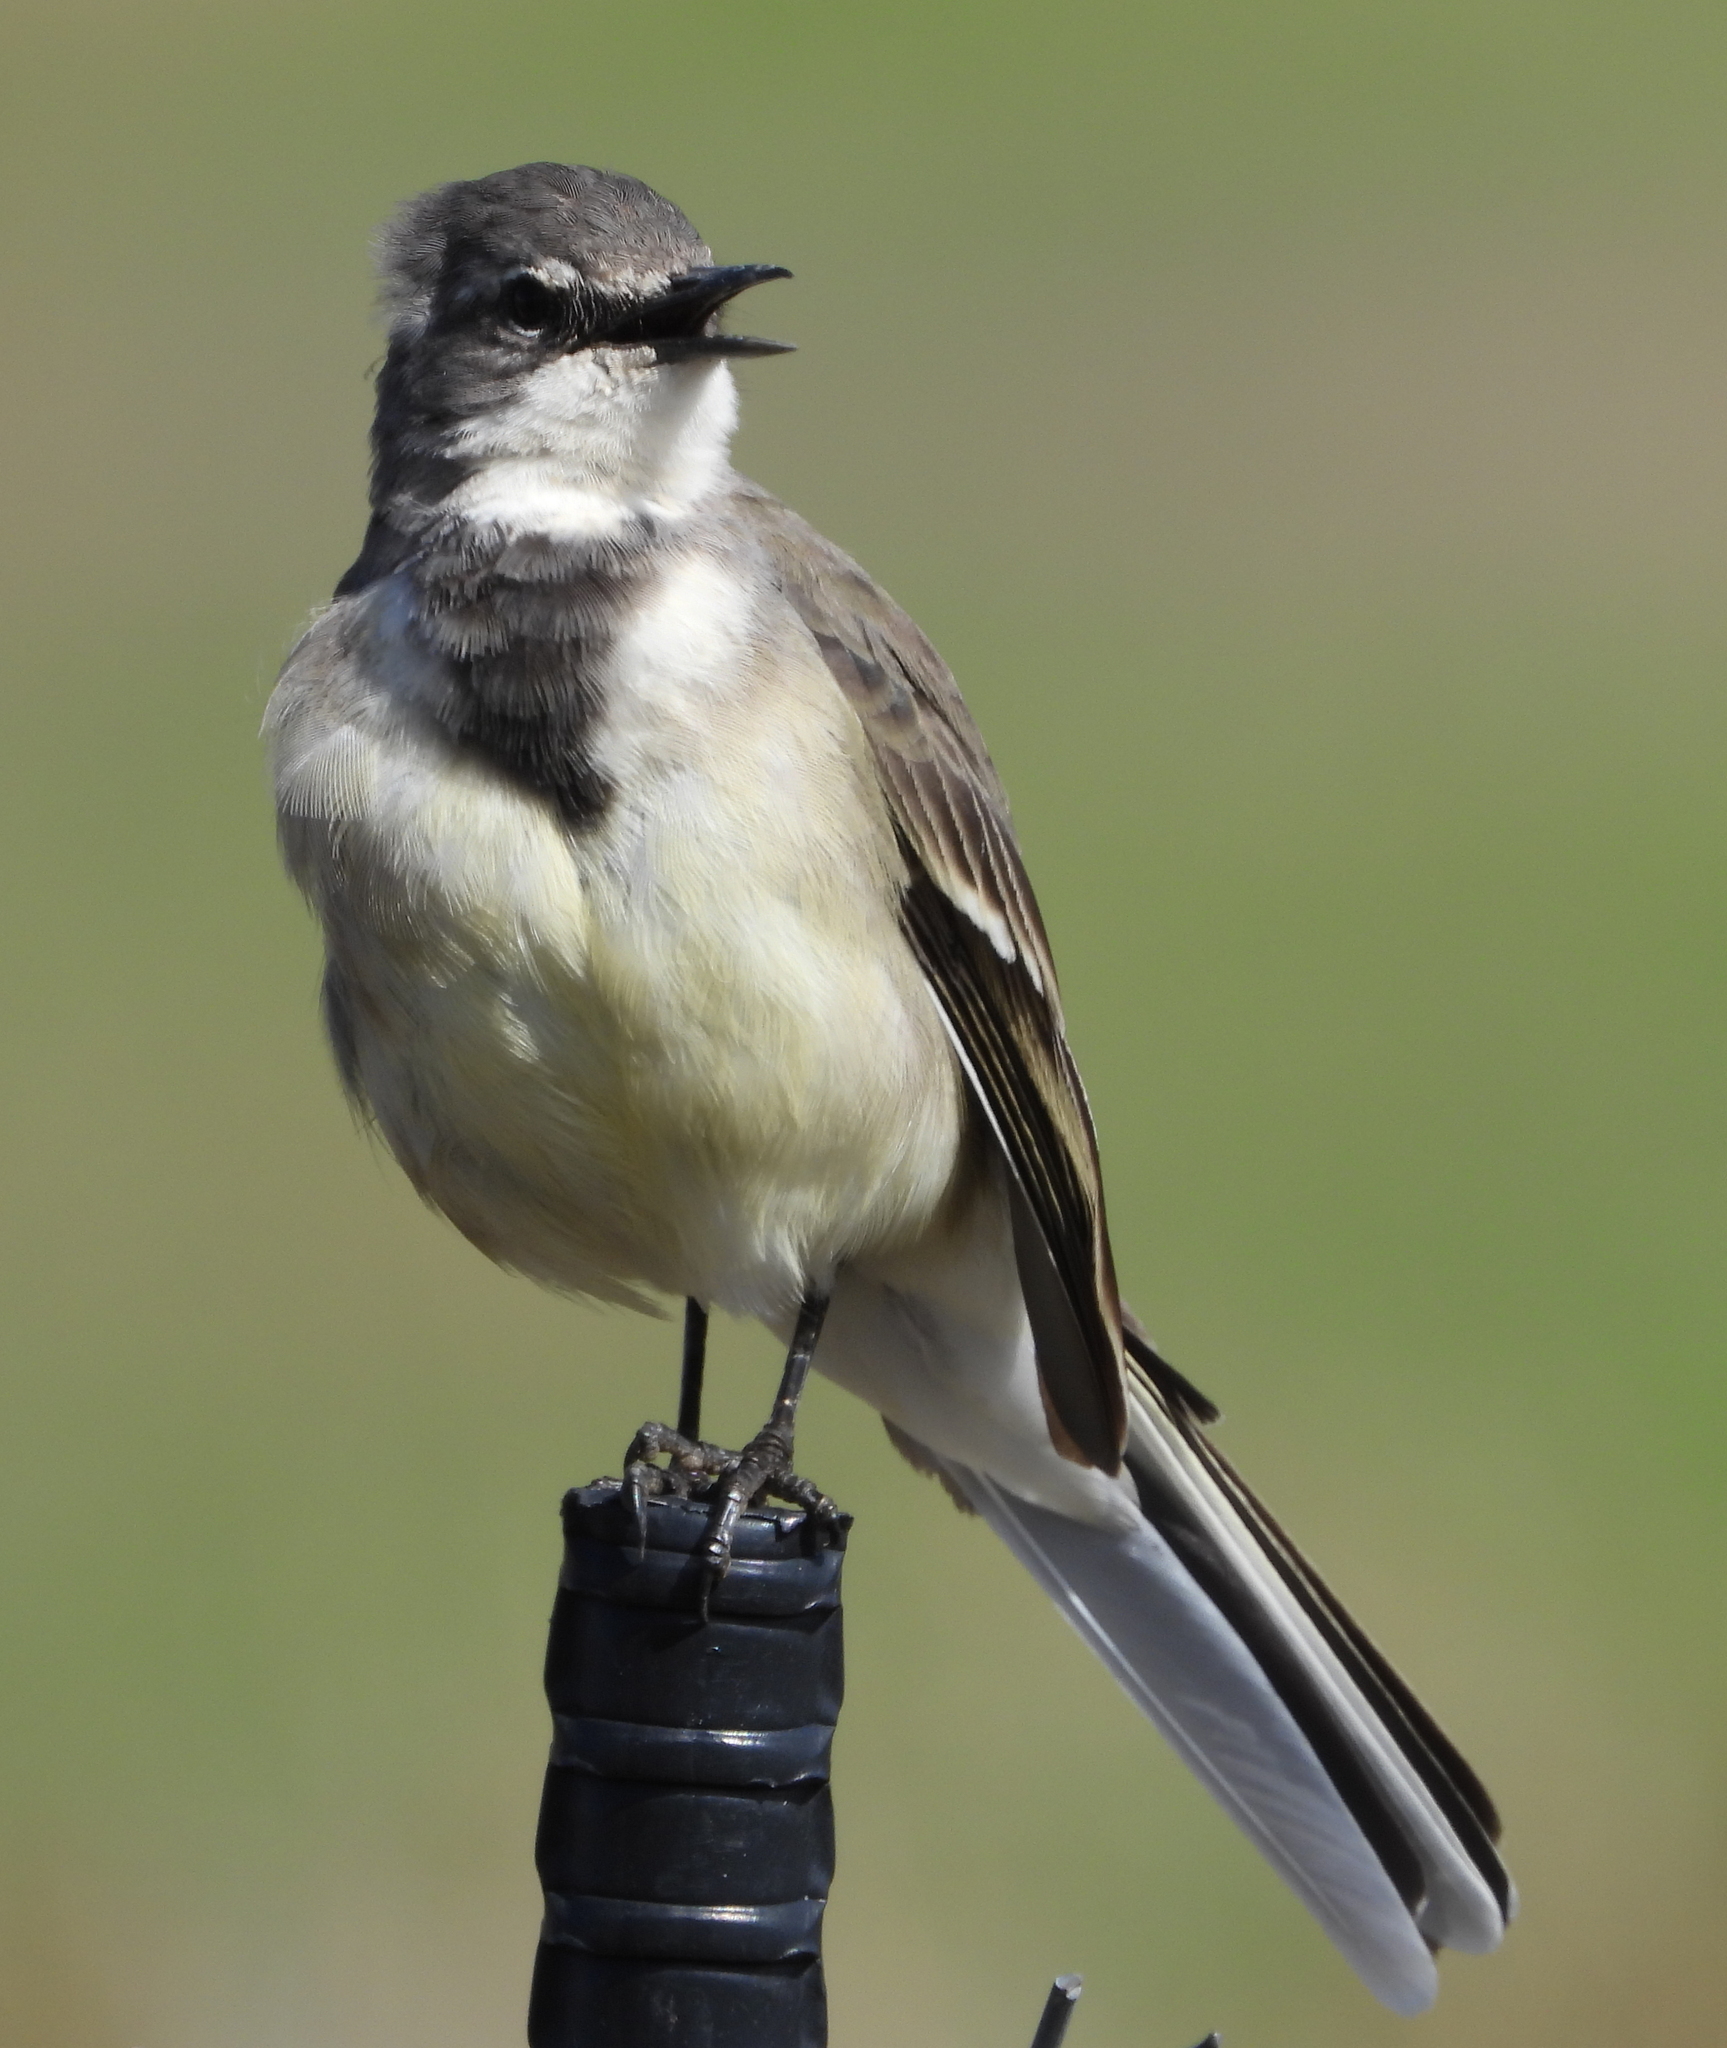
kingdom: Animalia
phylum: Chordata
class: Aves
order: Passeriformes
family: Motacillidae
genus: Motacilla
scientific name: Motacilla capensis
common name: Cape wagtail
